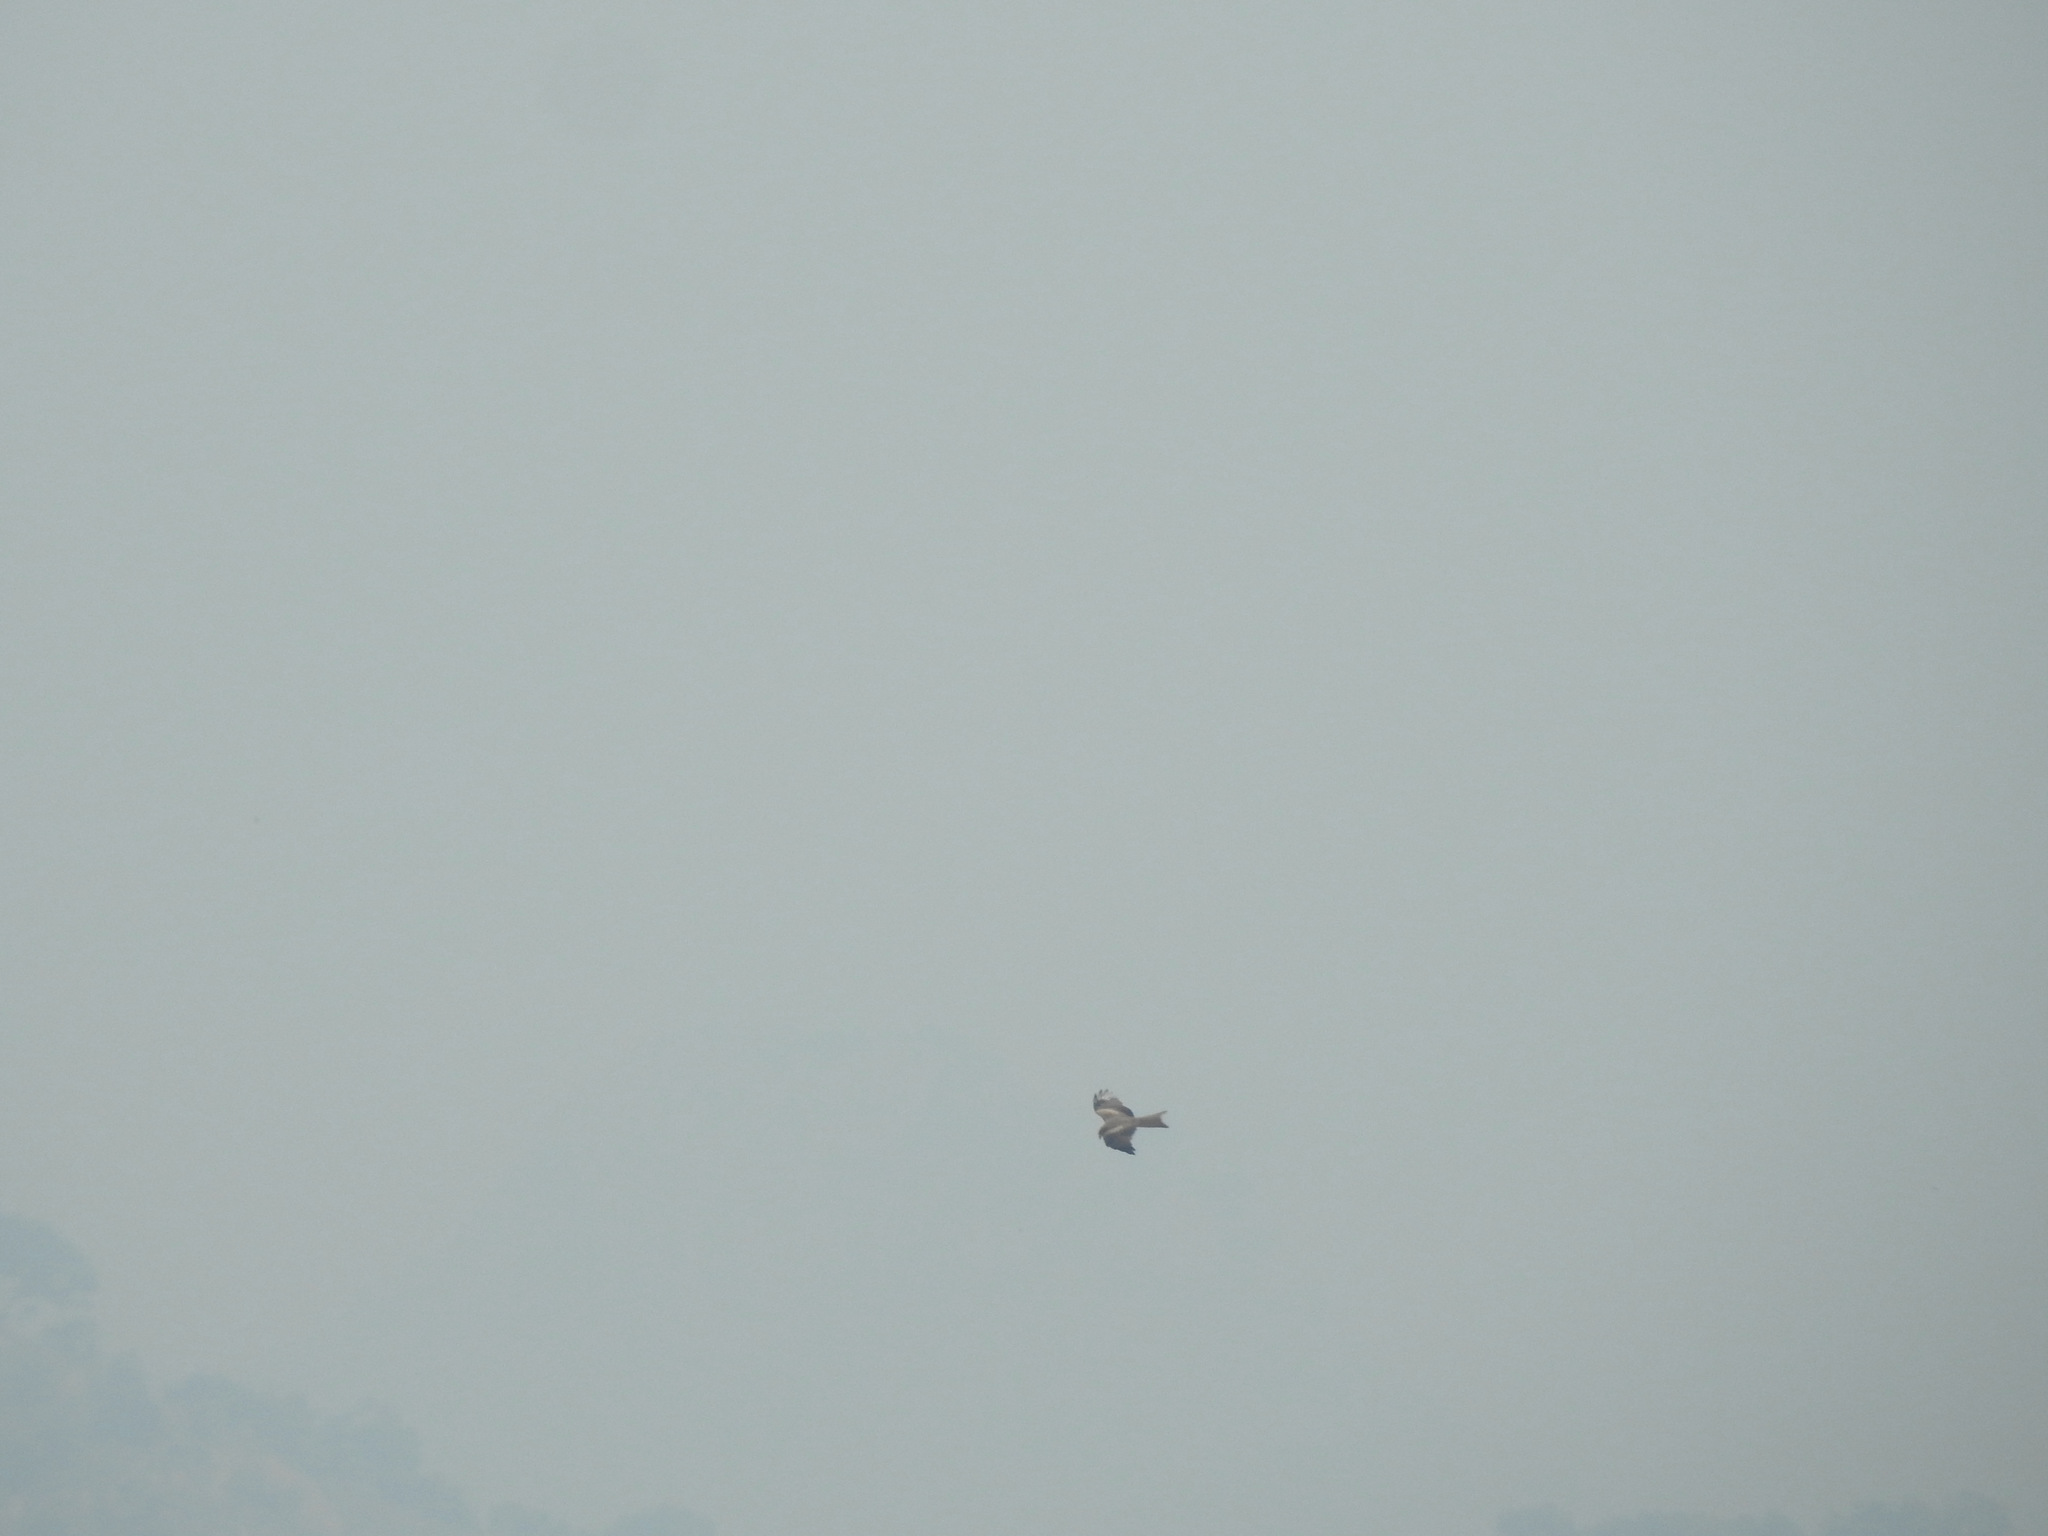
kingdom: Animalia
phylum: Chordata
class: Aves
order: Accipitriformes
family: Accipitridae
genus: Milvus
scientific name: Milvus migrans
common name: Black kite
